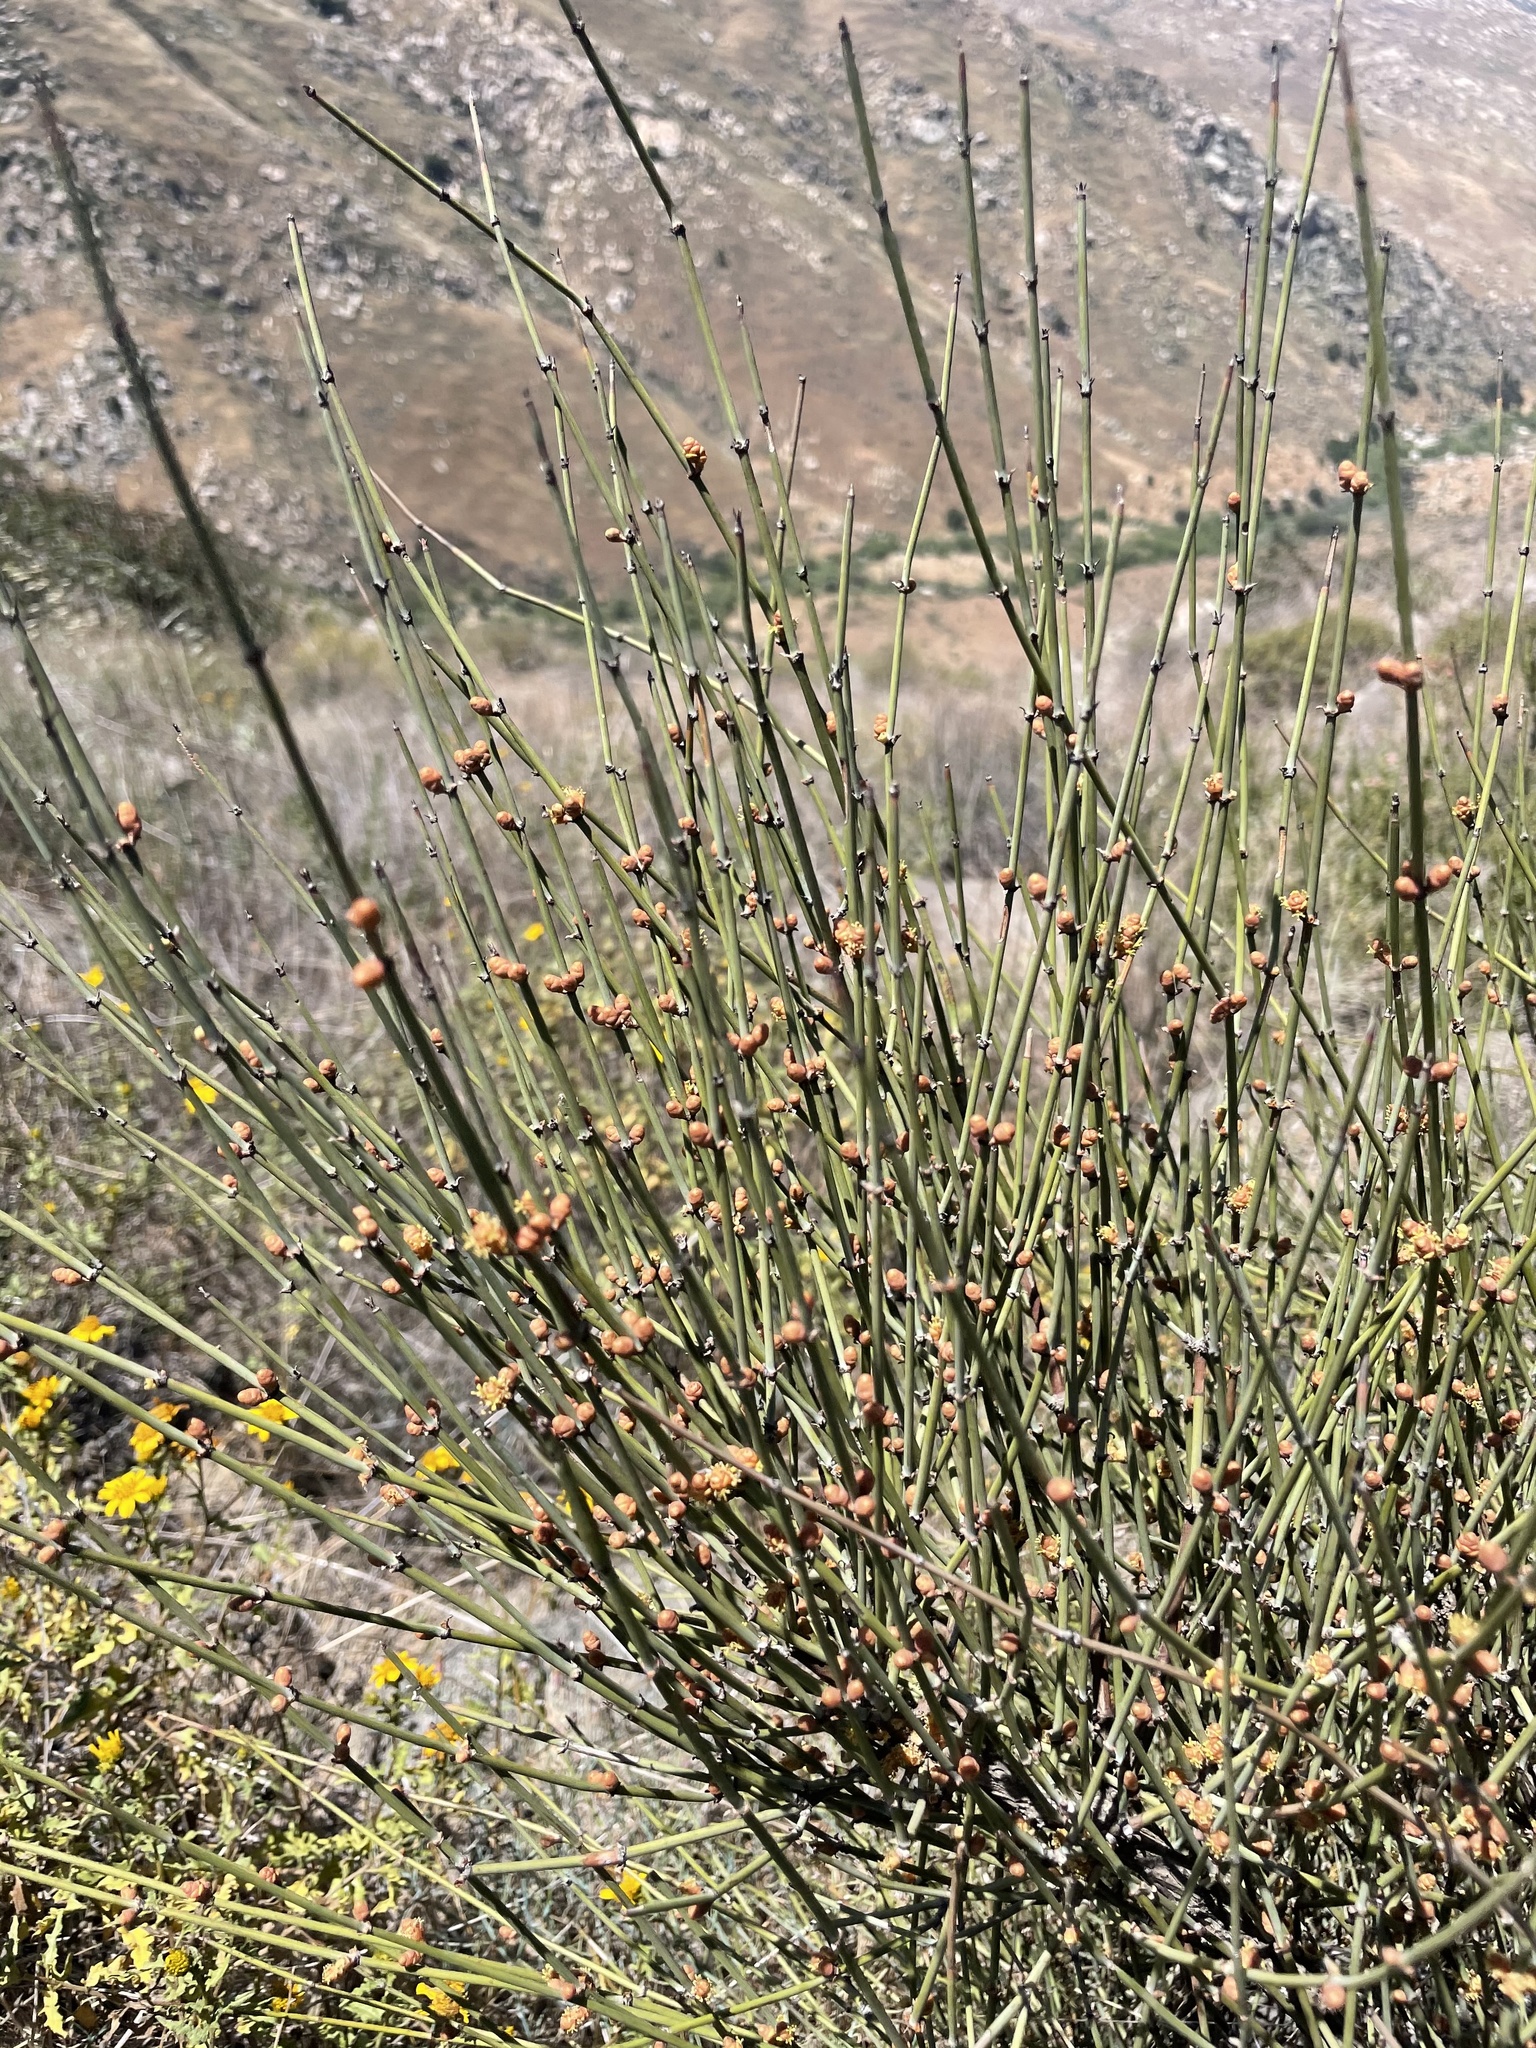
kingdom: Plantae
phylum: Tracheophyta
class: Gnetopsida
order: Ephedrales
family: Ephedraceae
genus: Ephedra
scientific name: Ephedra californica
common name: California ephedra
